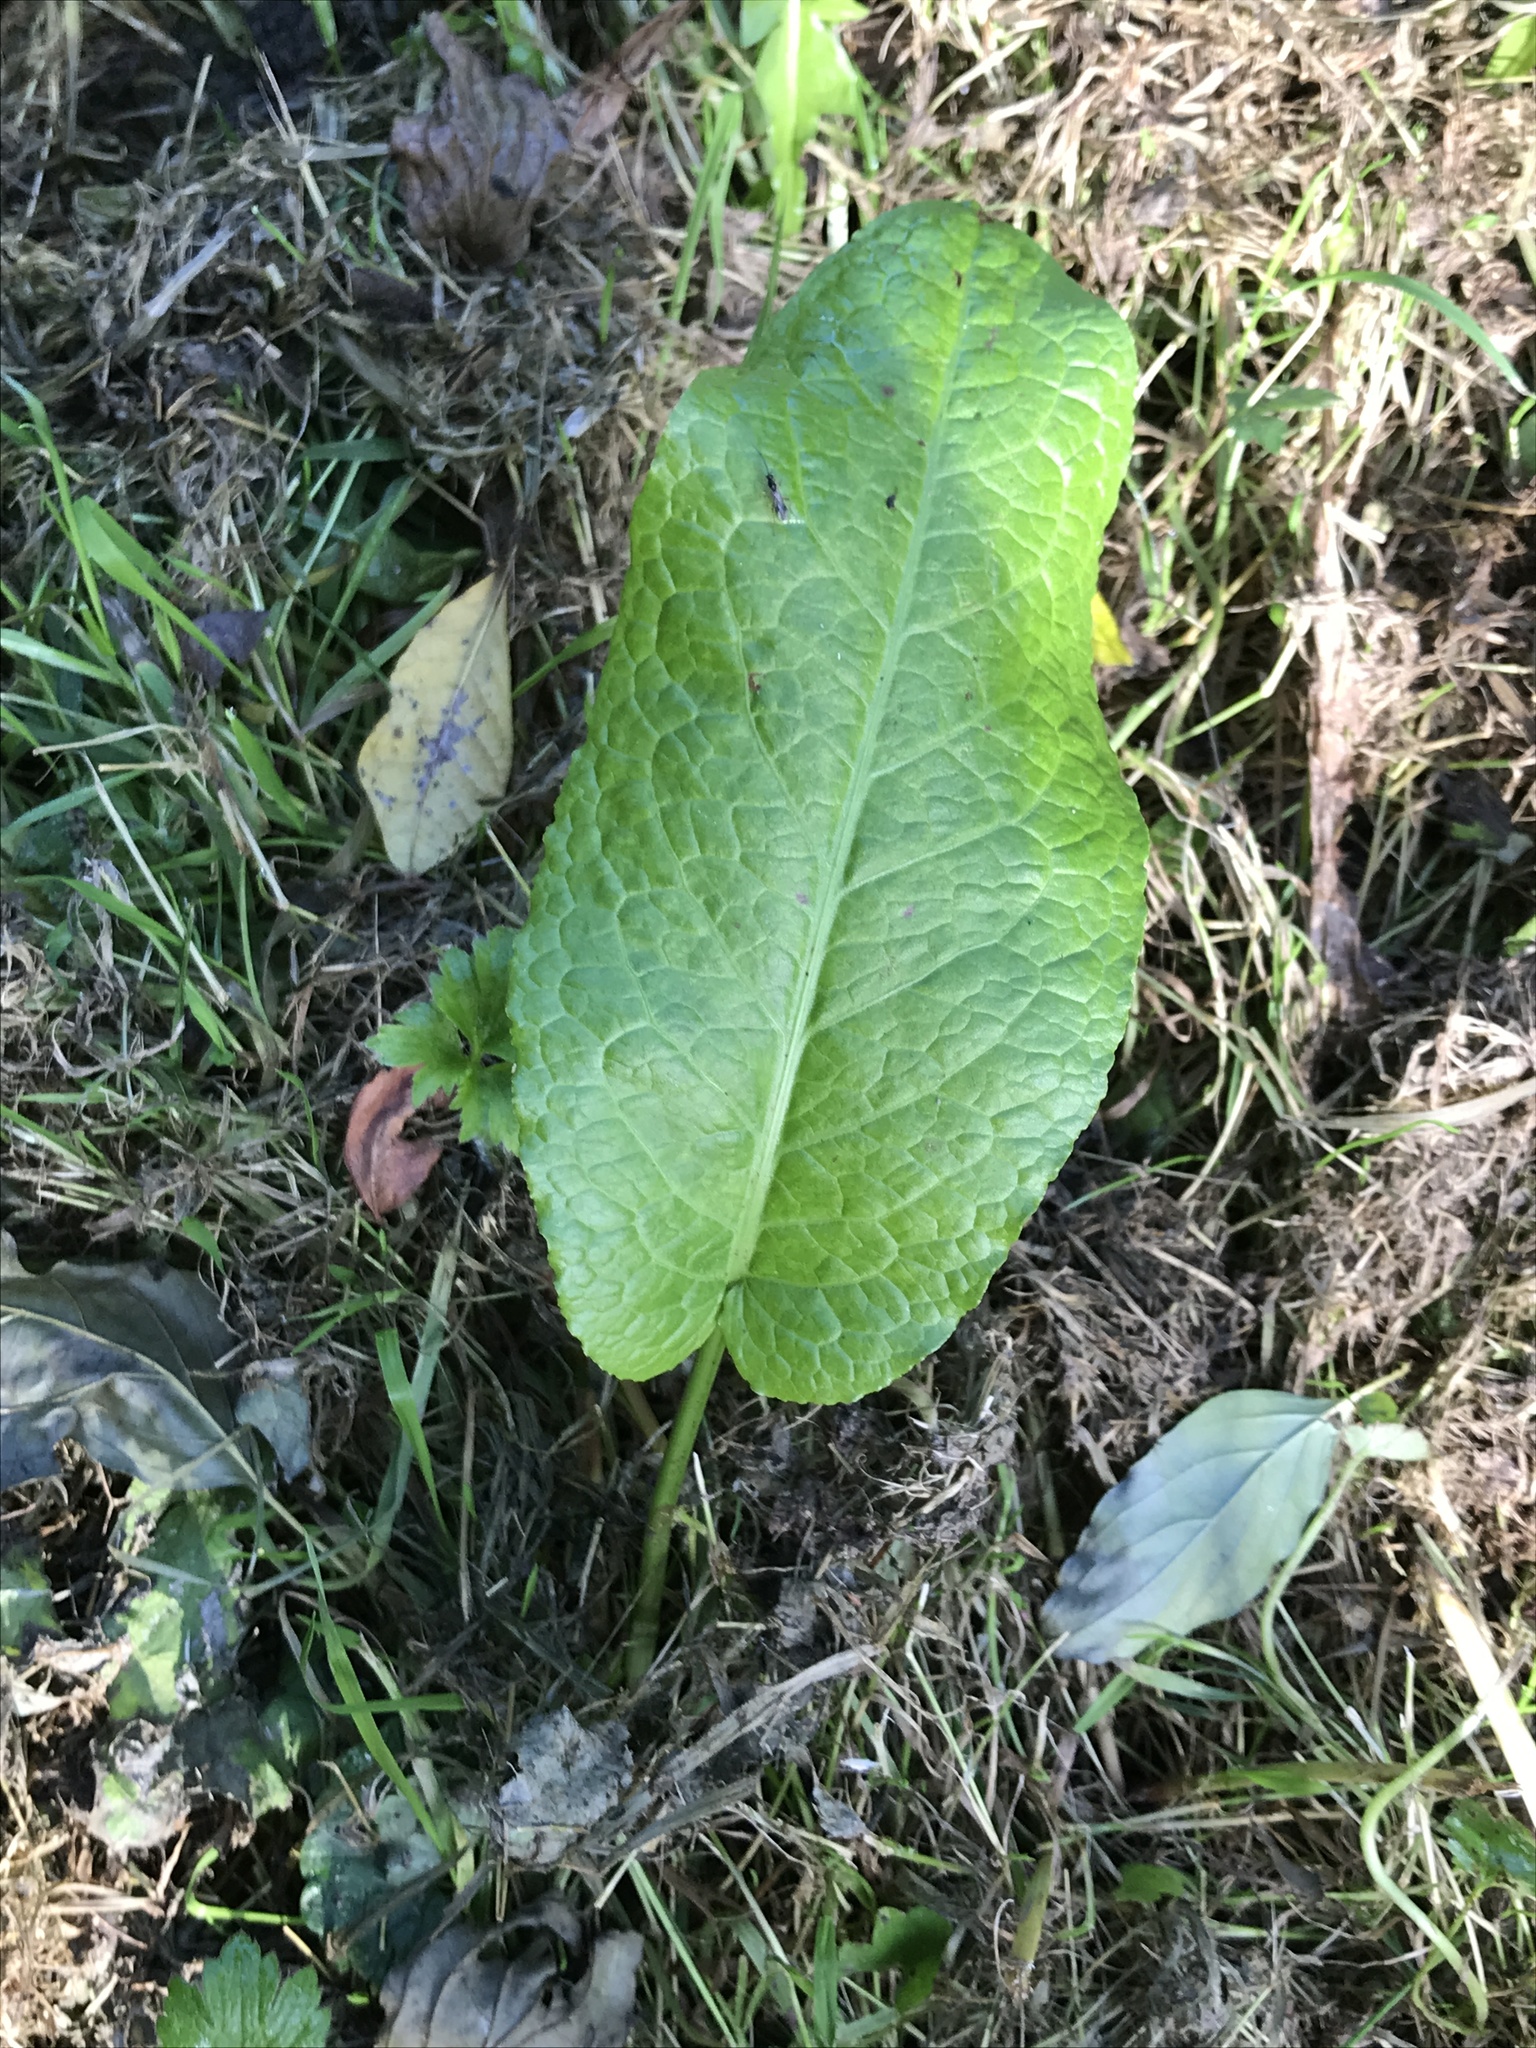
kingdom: Plantae
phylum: Tracheophyta
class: Magnoliopsida
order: Caryophyllales
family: Polygonaceae
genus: Rumex
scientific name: Rumex obtusifolius
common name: Bitter dock
